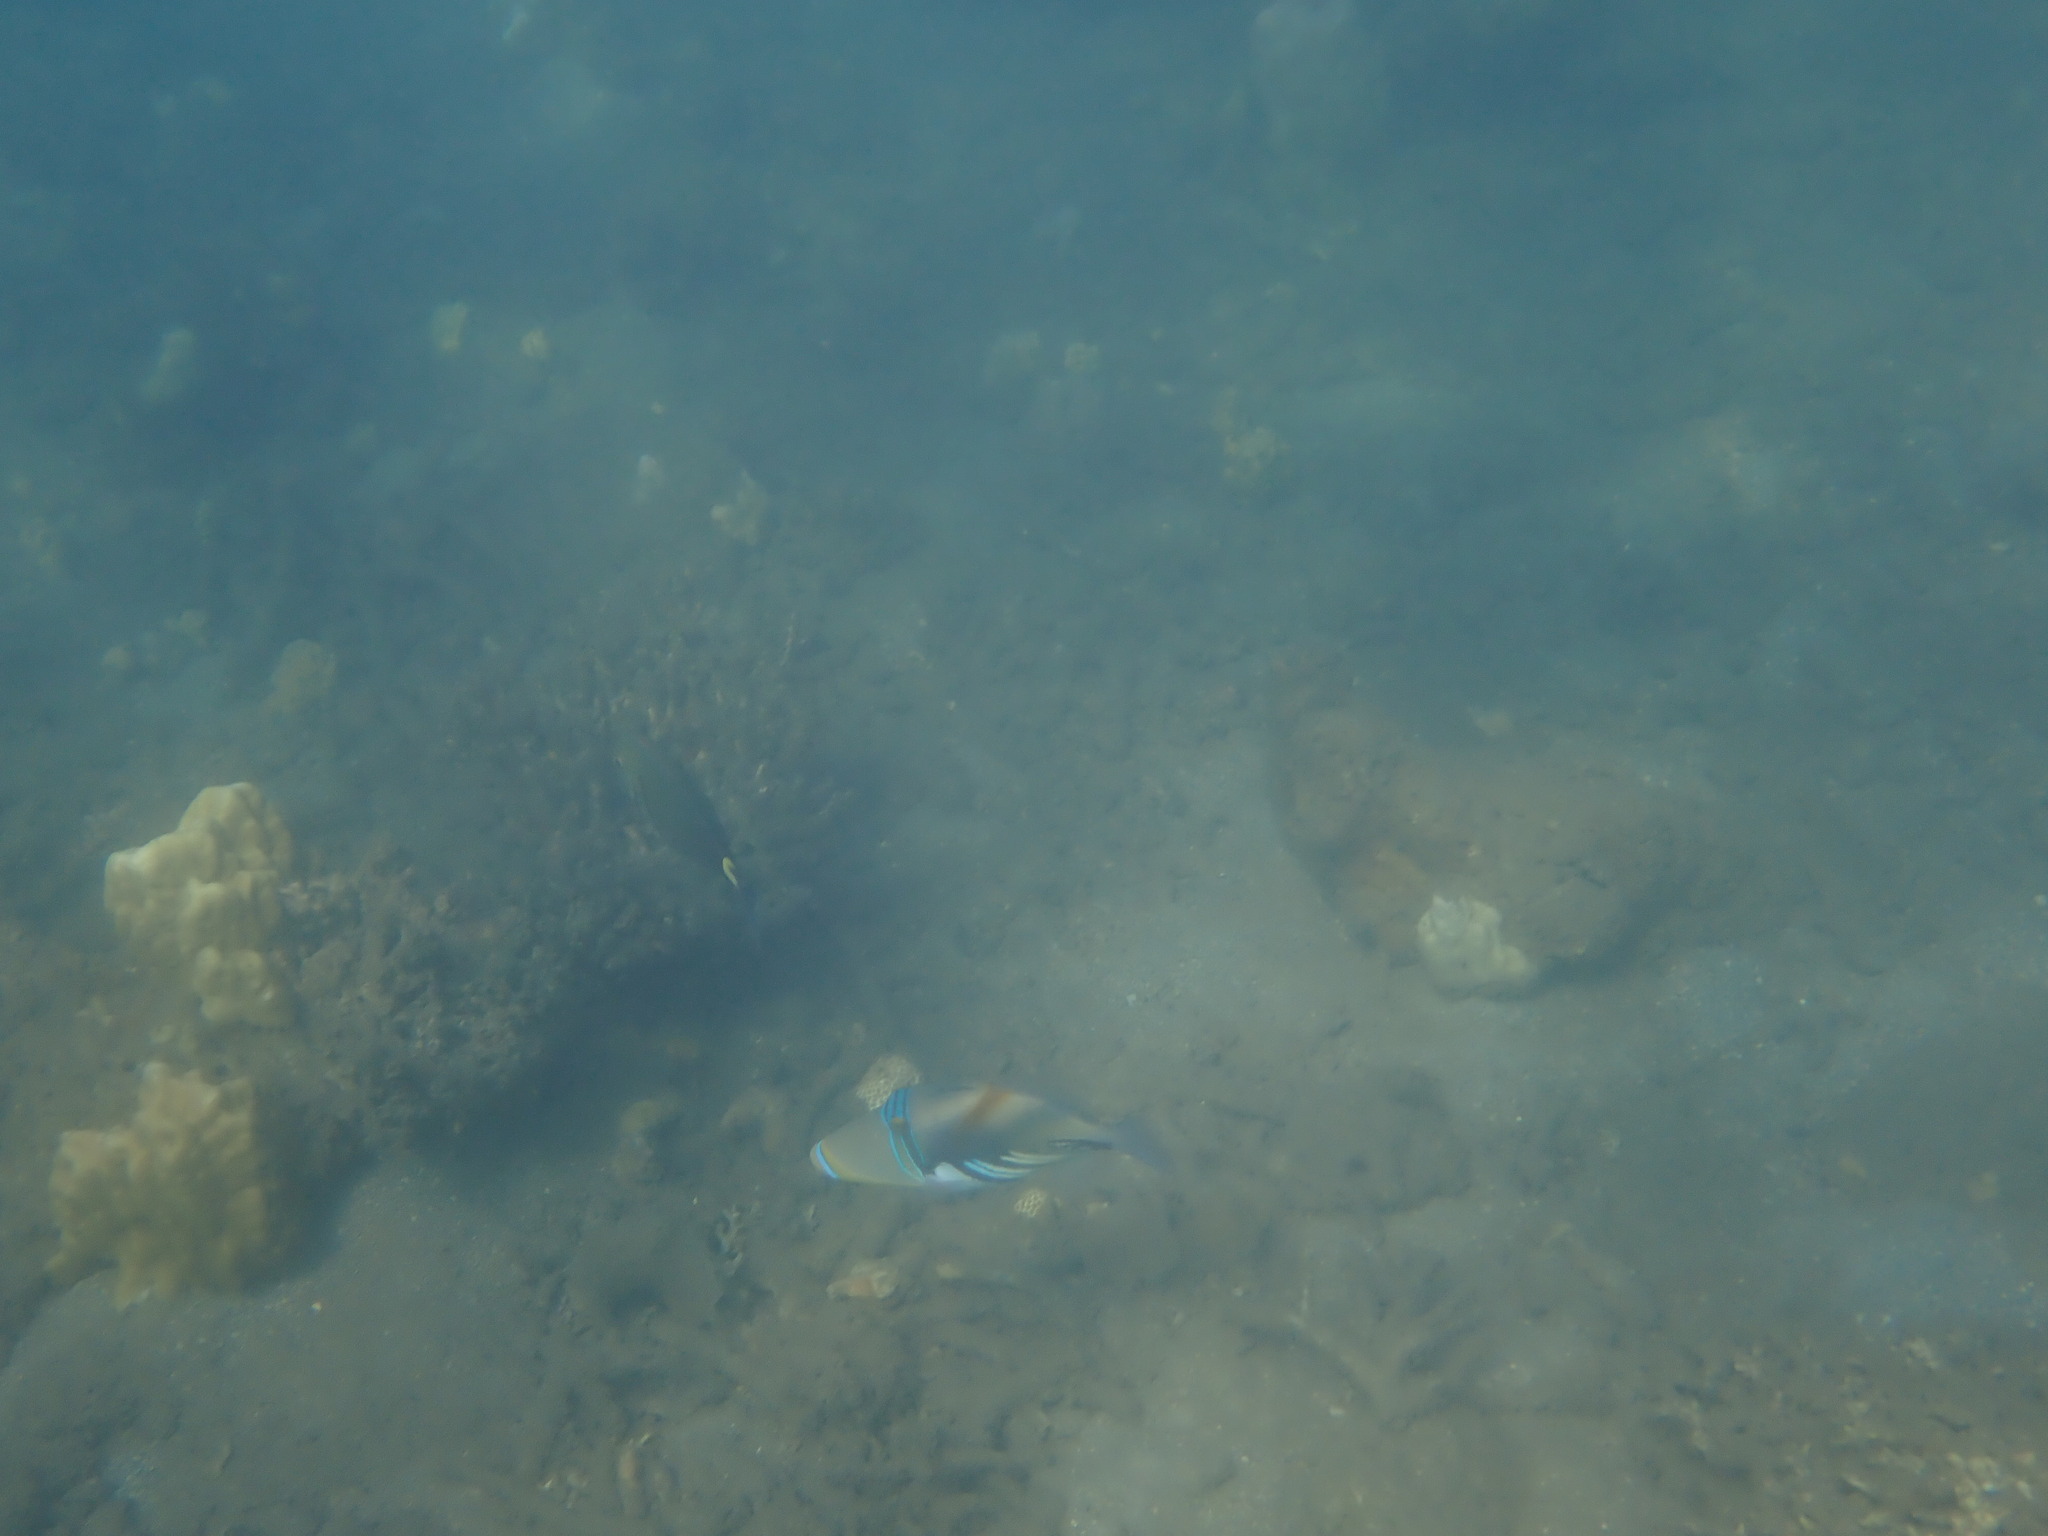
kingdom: Animalia
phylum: Chordata
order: Tetraodontiformes
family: Balistidae
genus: Rhinecanthus
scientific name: Rhinecanthus aculeatus
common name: White-banded triggerfish
